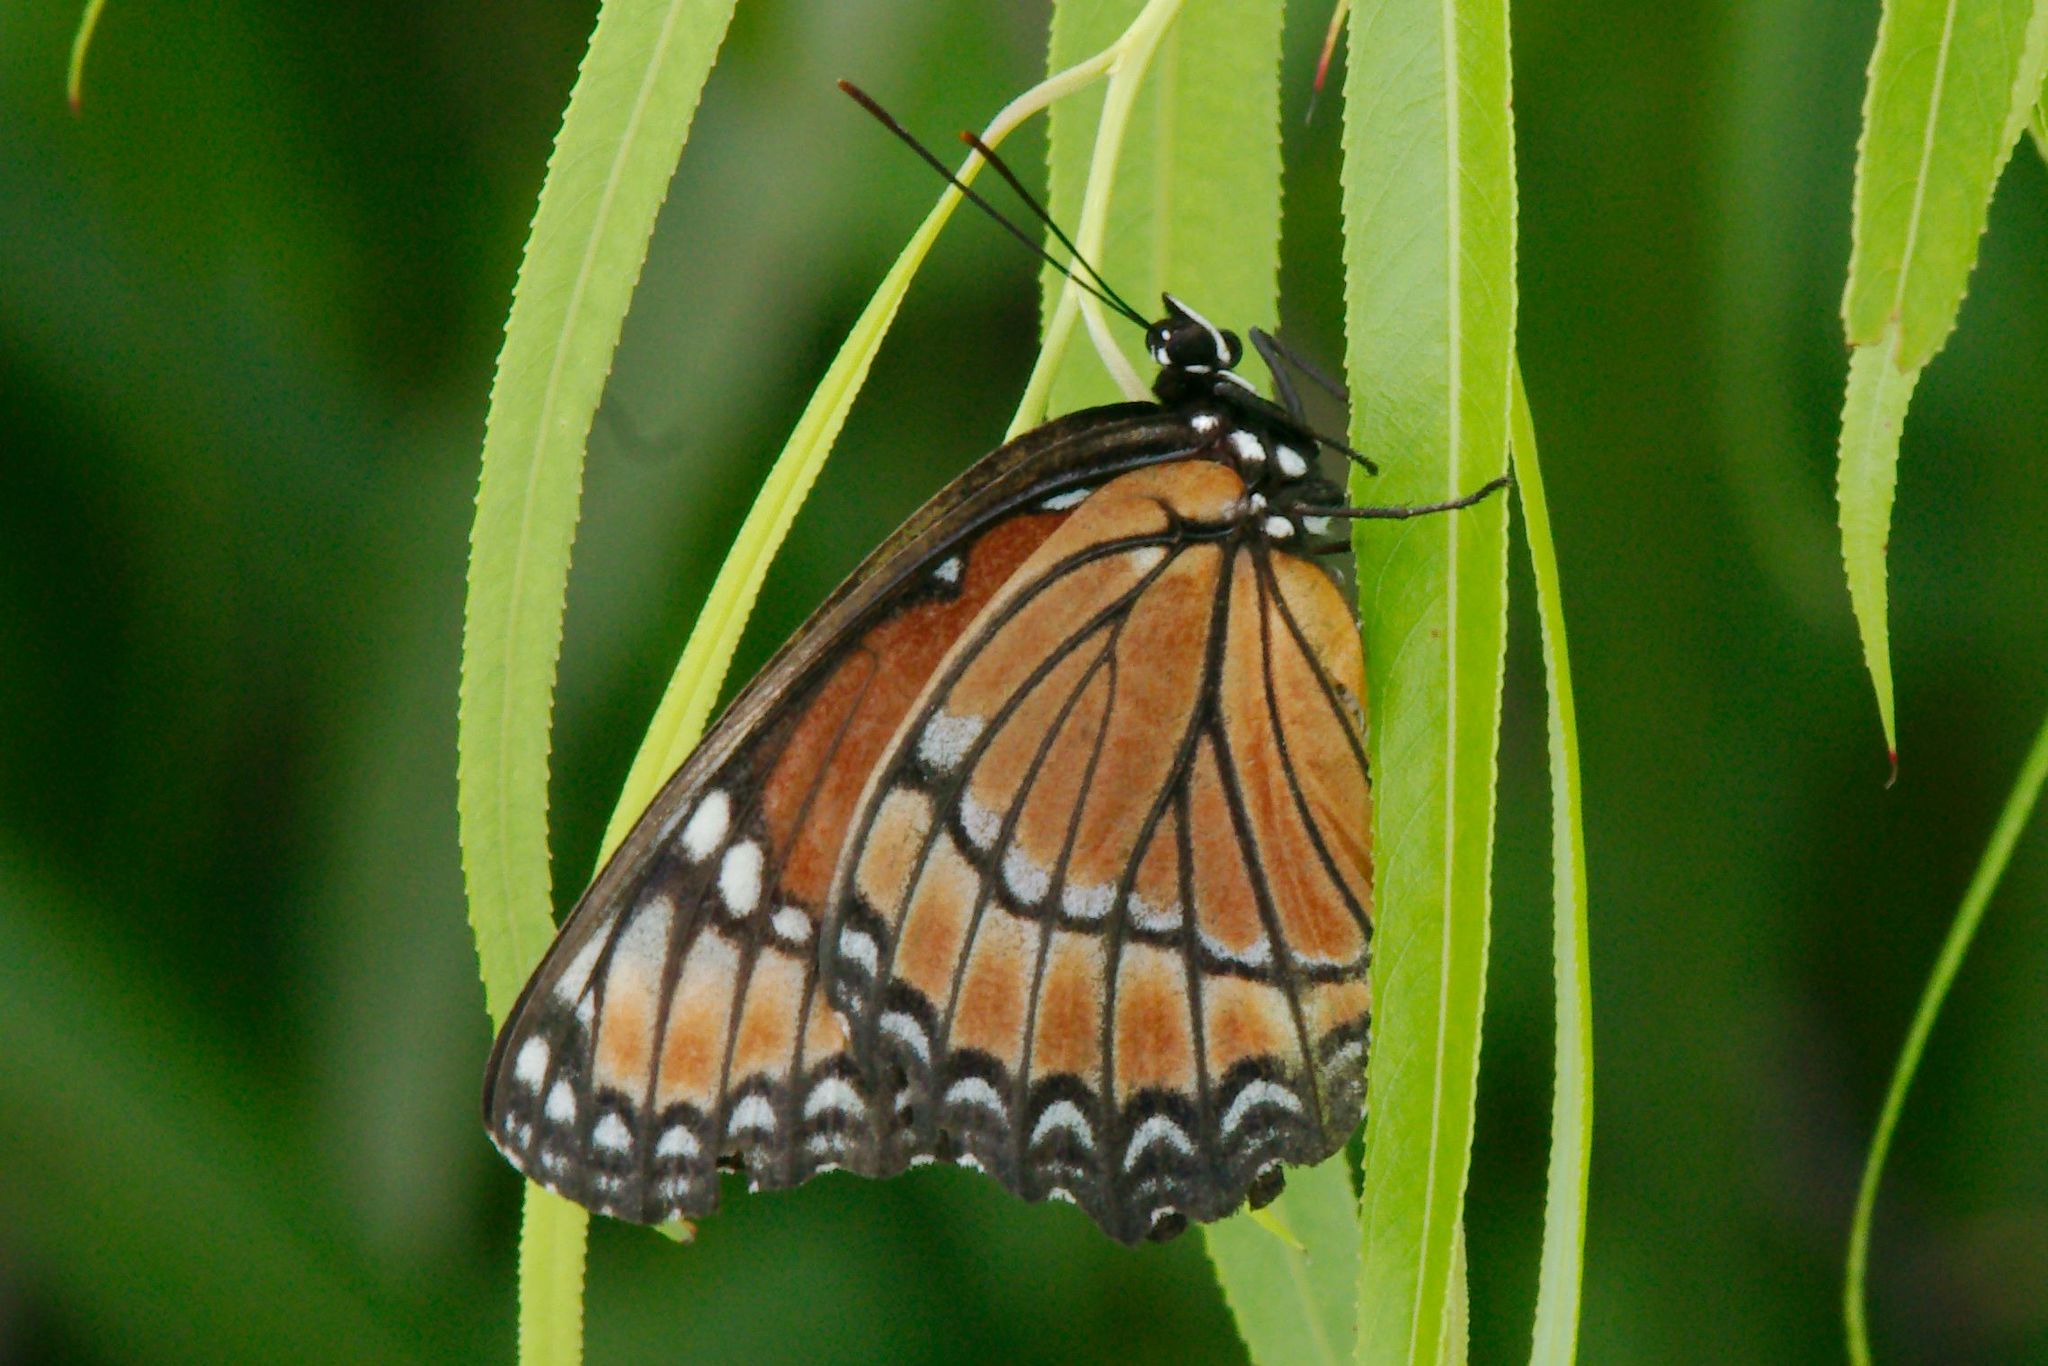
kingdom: Animalia
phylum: Arthropoda
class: Insecta
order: Lepidoptera
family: Nymphalidae
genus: Limenitis
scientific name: Limenitis archippus
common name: Viceroy
